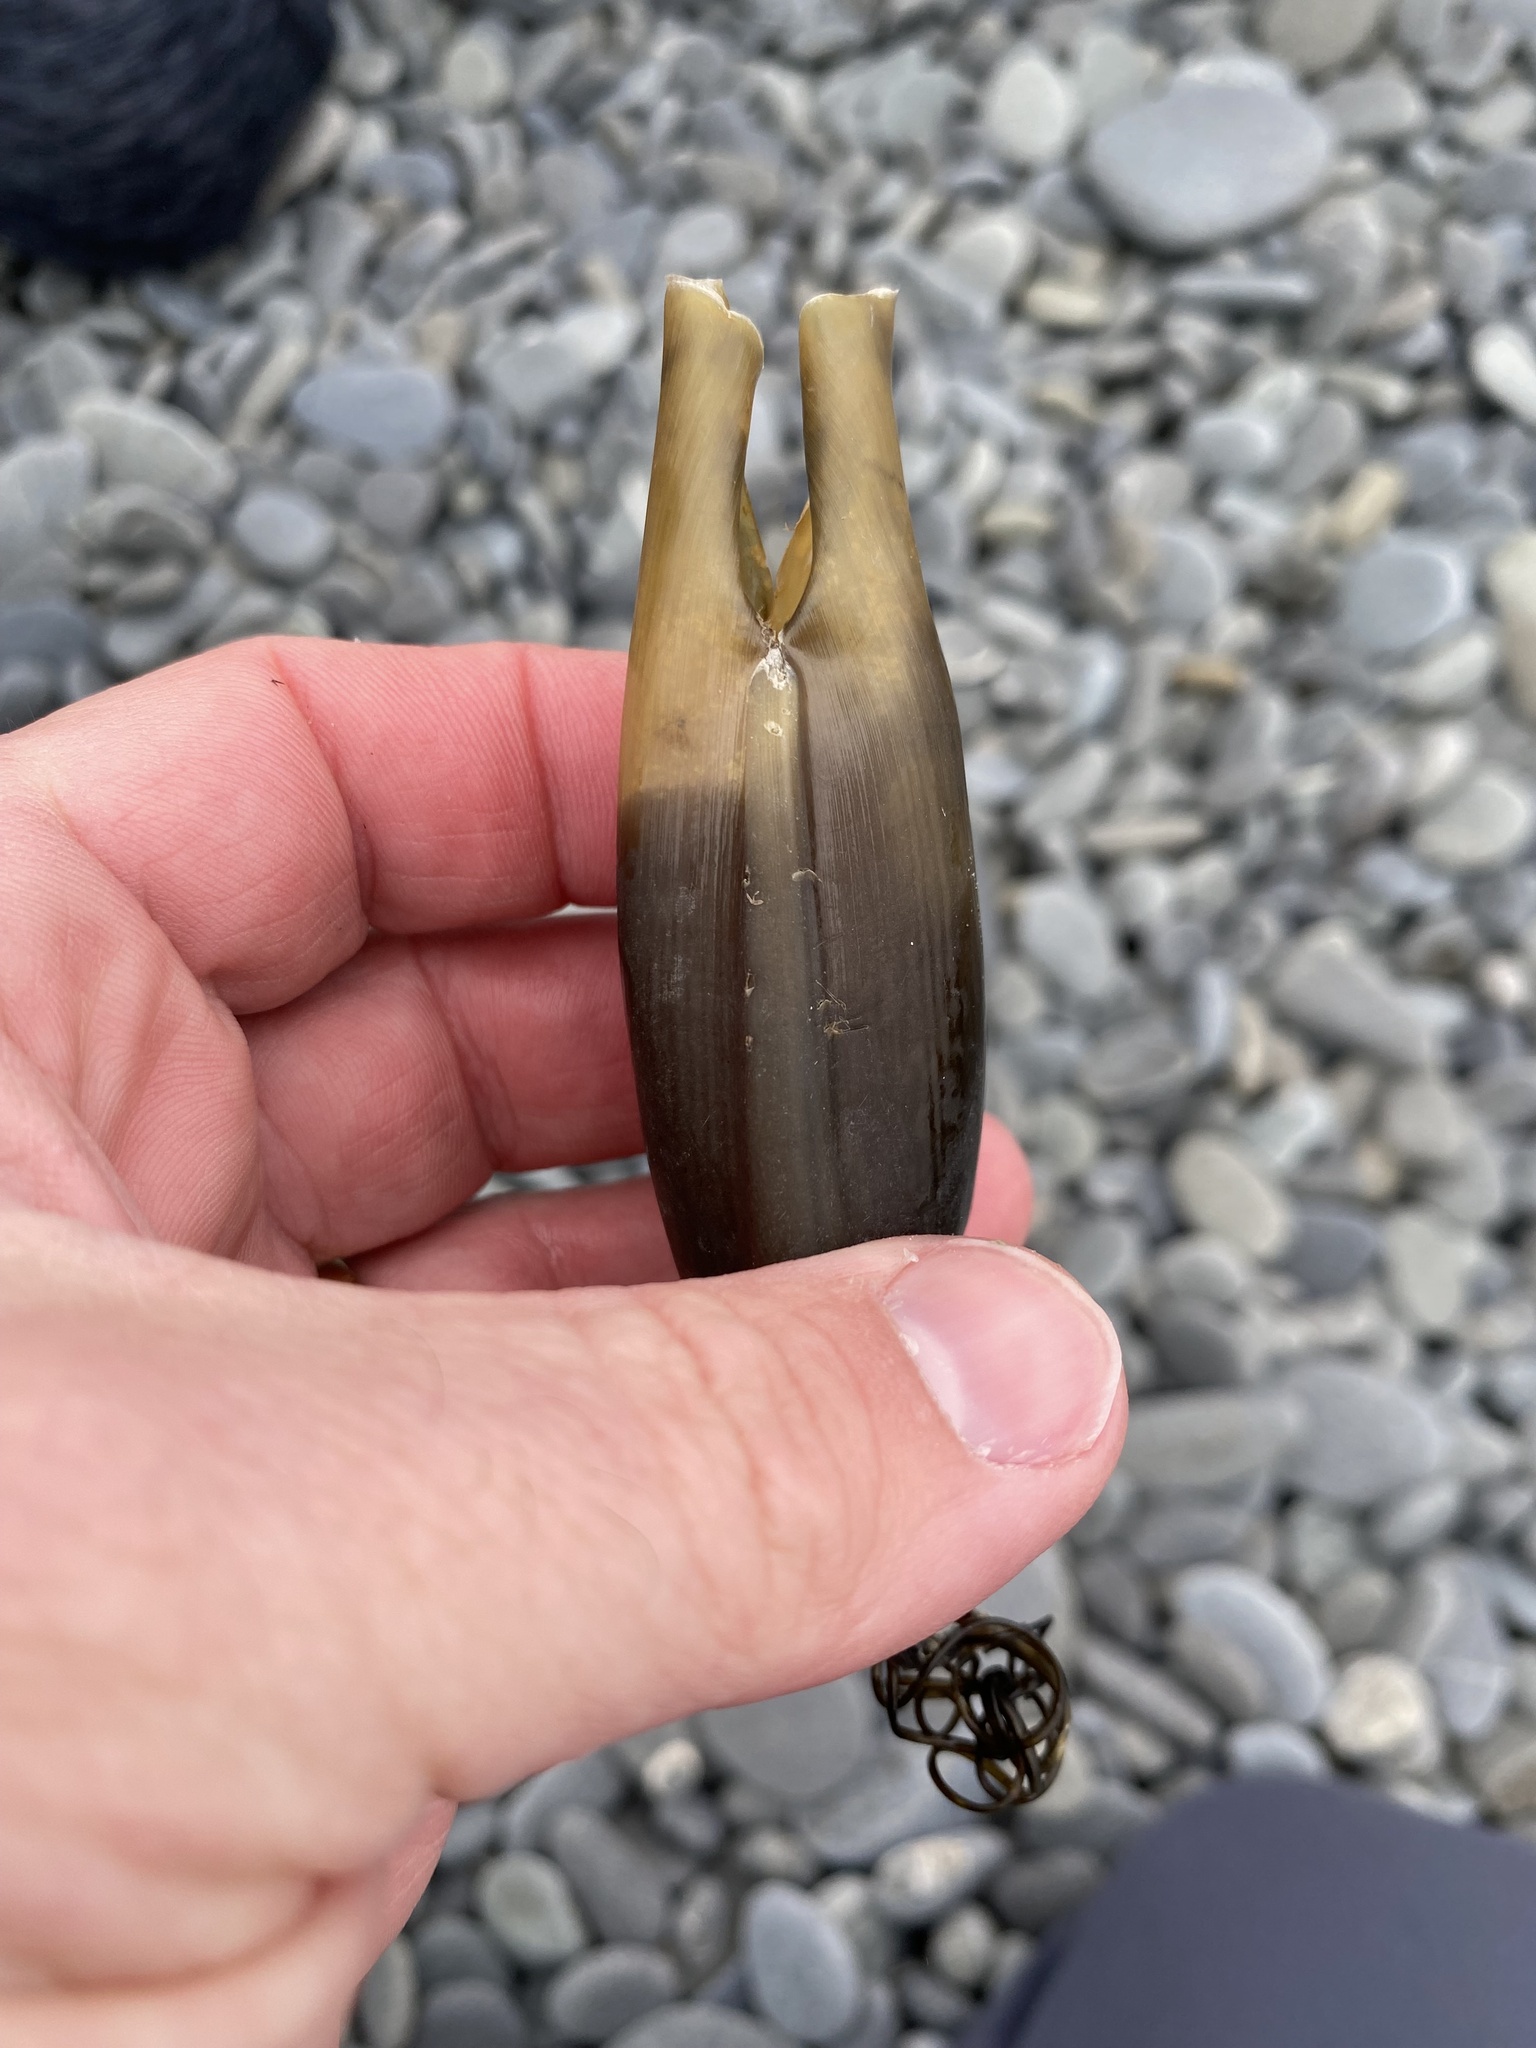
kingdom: Animalia
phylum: Chordata
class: Elasmobranchii
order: Carcharhiniformes
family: Scyliorhinidae
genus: Cephaloscyllium
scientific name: Cephaloscyllium isabellum
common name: Carpet shark
